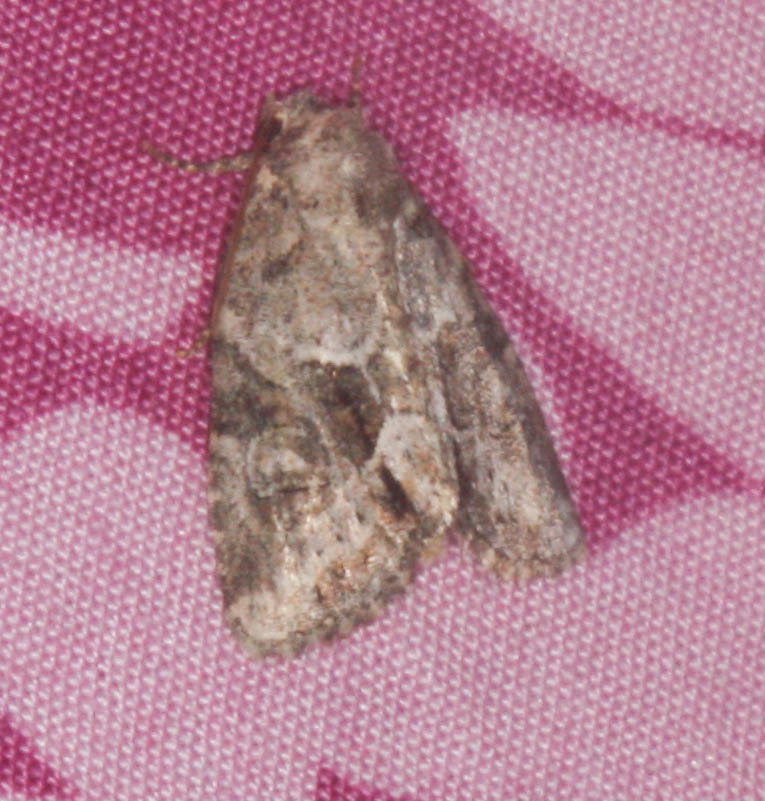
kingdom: Animalia
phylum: Arthropoda
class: Insecta
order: Lepidoptera
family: Noctuidae
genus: Neoligia
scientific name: Neoligia exhausta
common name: Exhausted brocade
